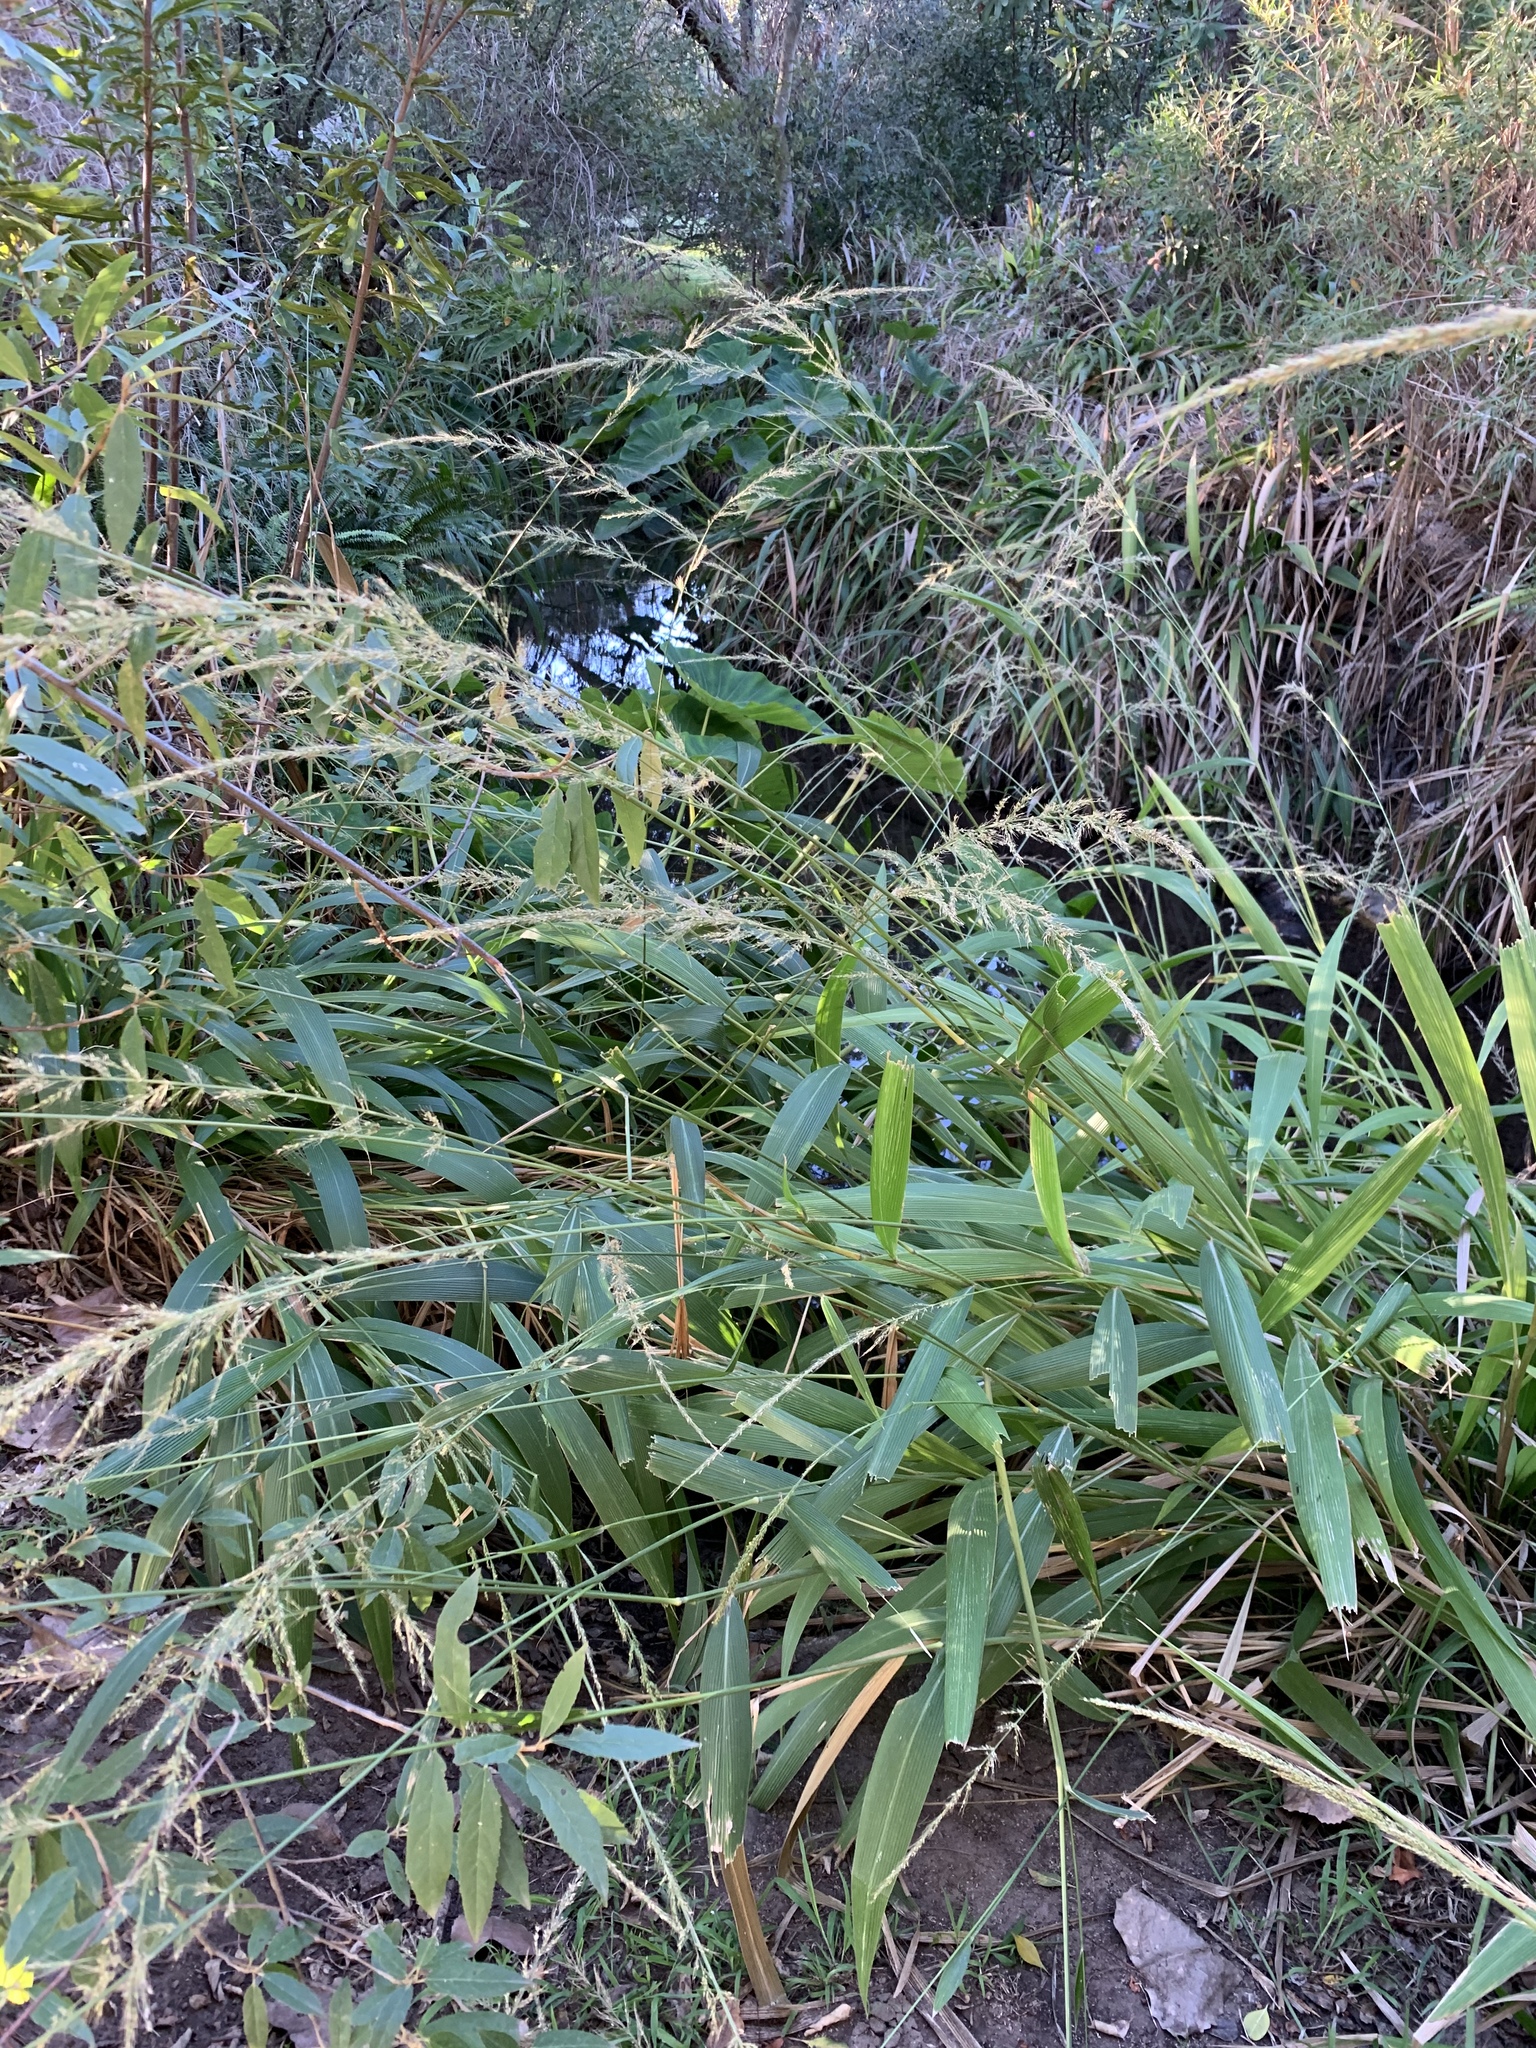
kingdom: Plantae
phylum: Tracheophyta
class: Liliopsida
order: Poales
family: Poaceae
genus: Setaria
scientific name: Setaria megaphylla
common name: Bigleaf bristlegrass
